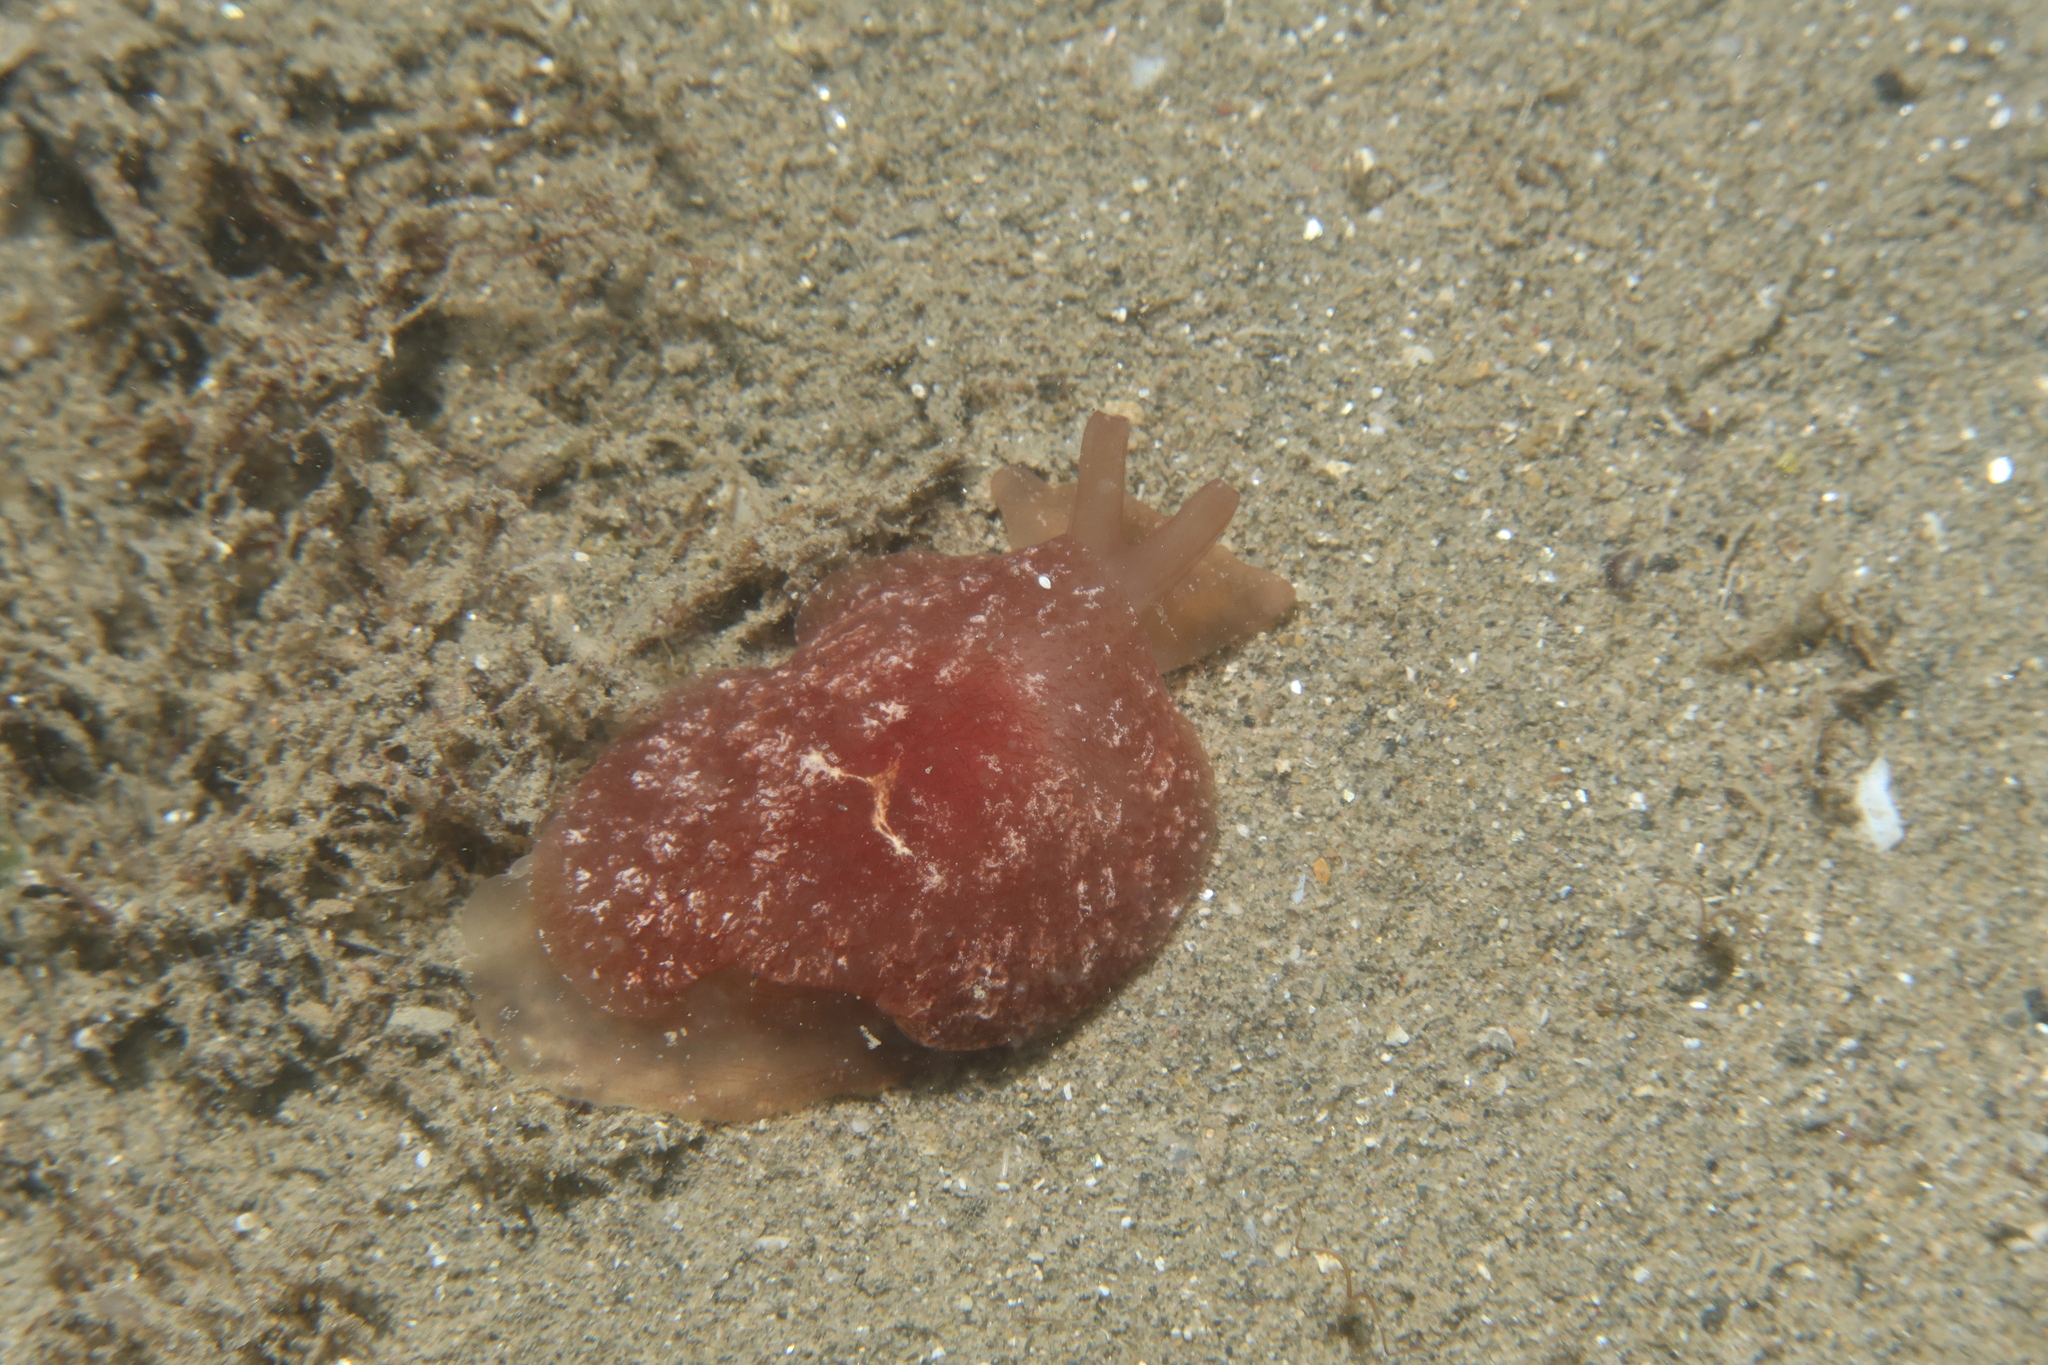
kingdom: Animalia
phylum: Mollusca
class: Gastropoda
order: Pleurobranchida
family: Pleurobranchidae
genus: Pleurehdera
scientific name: Pleurehdera
